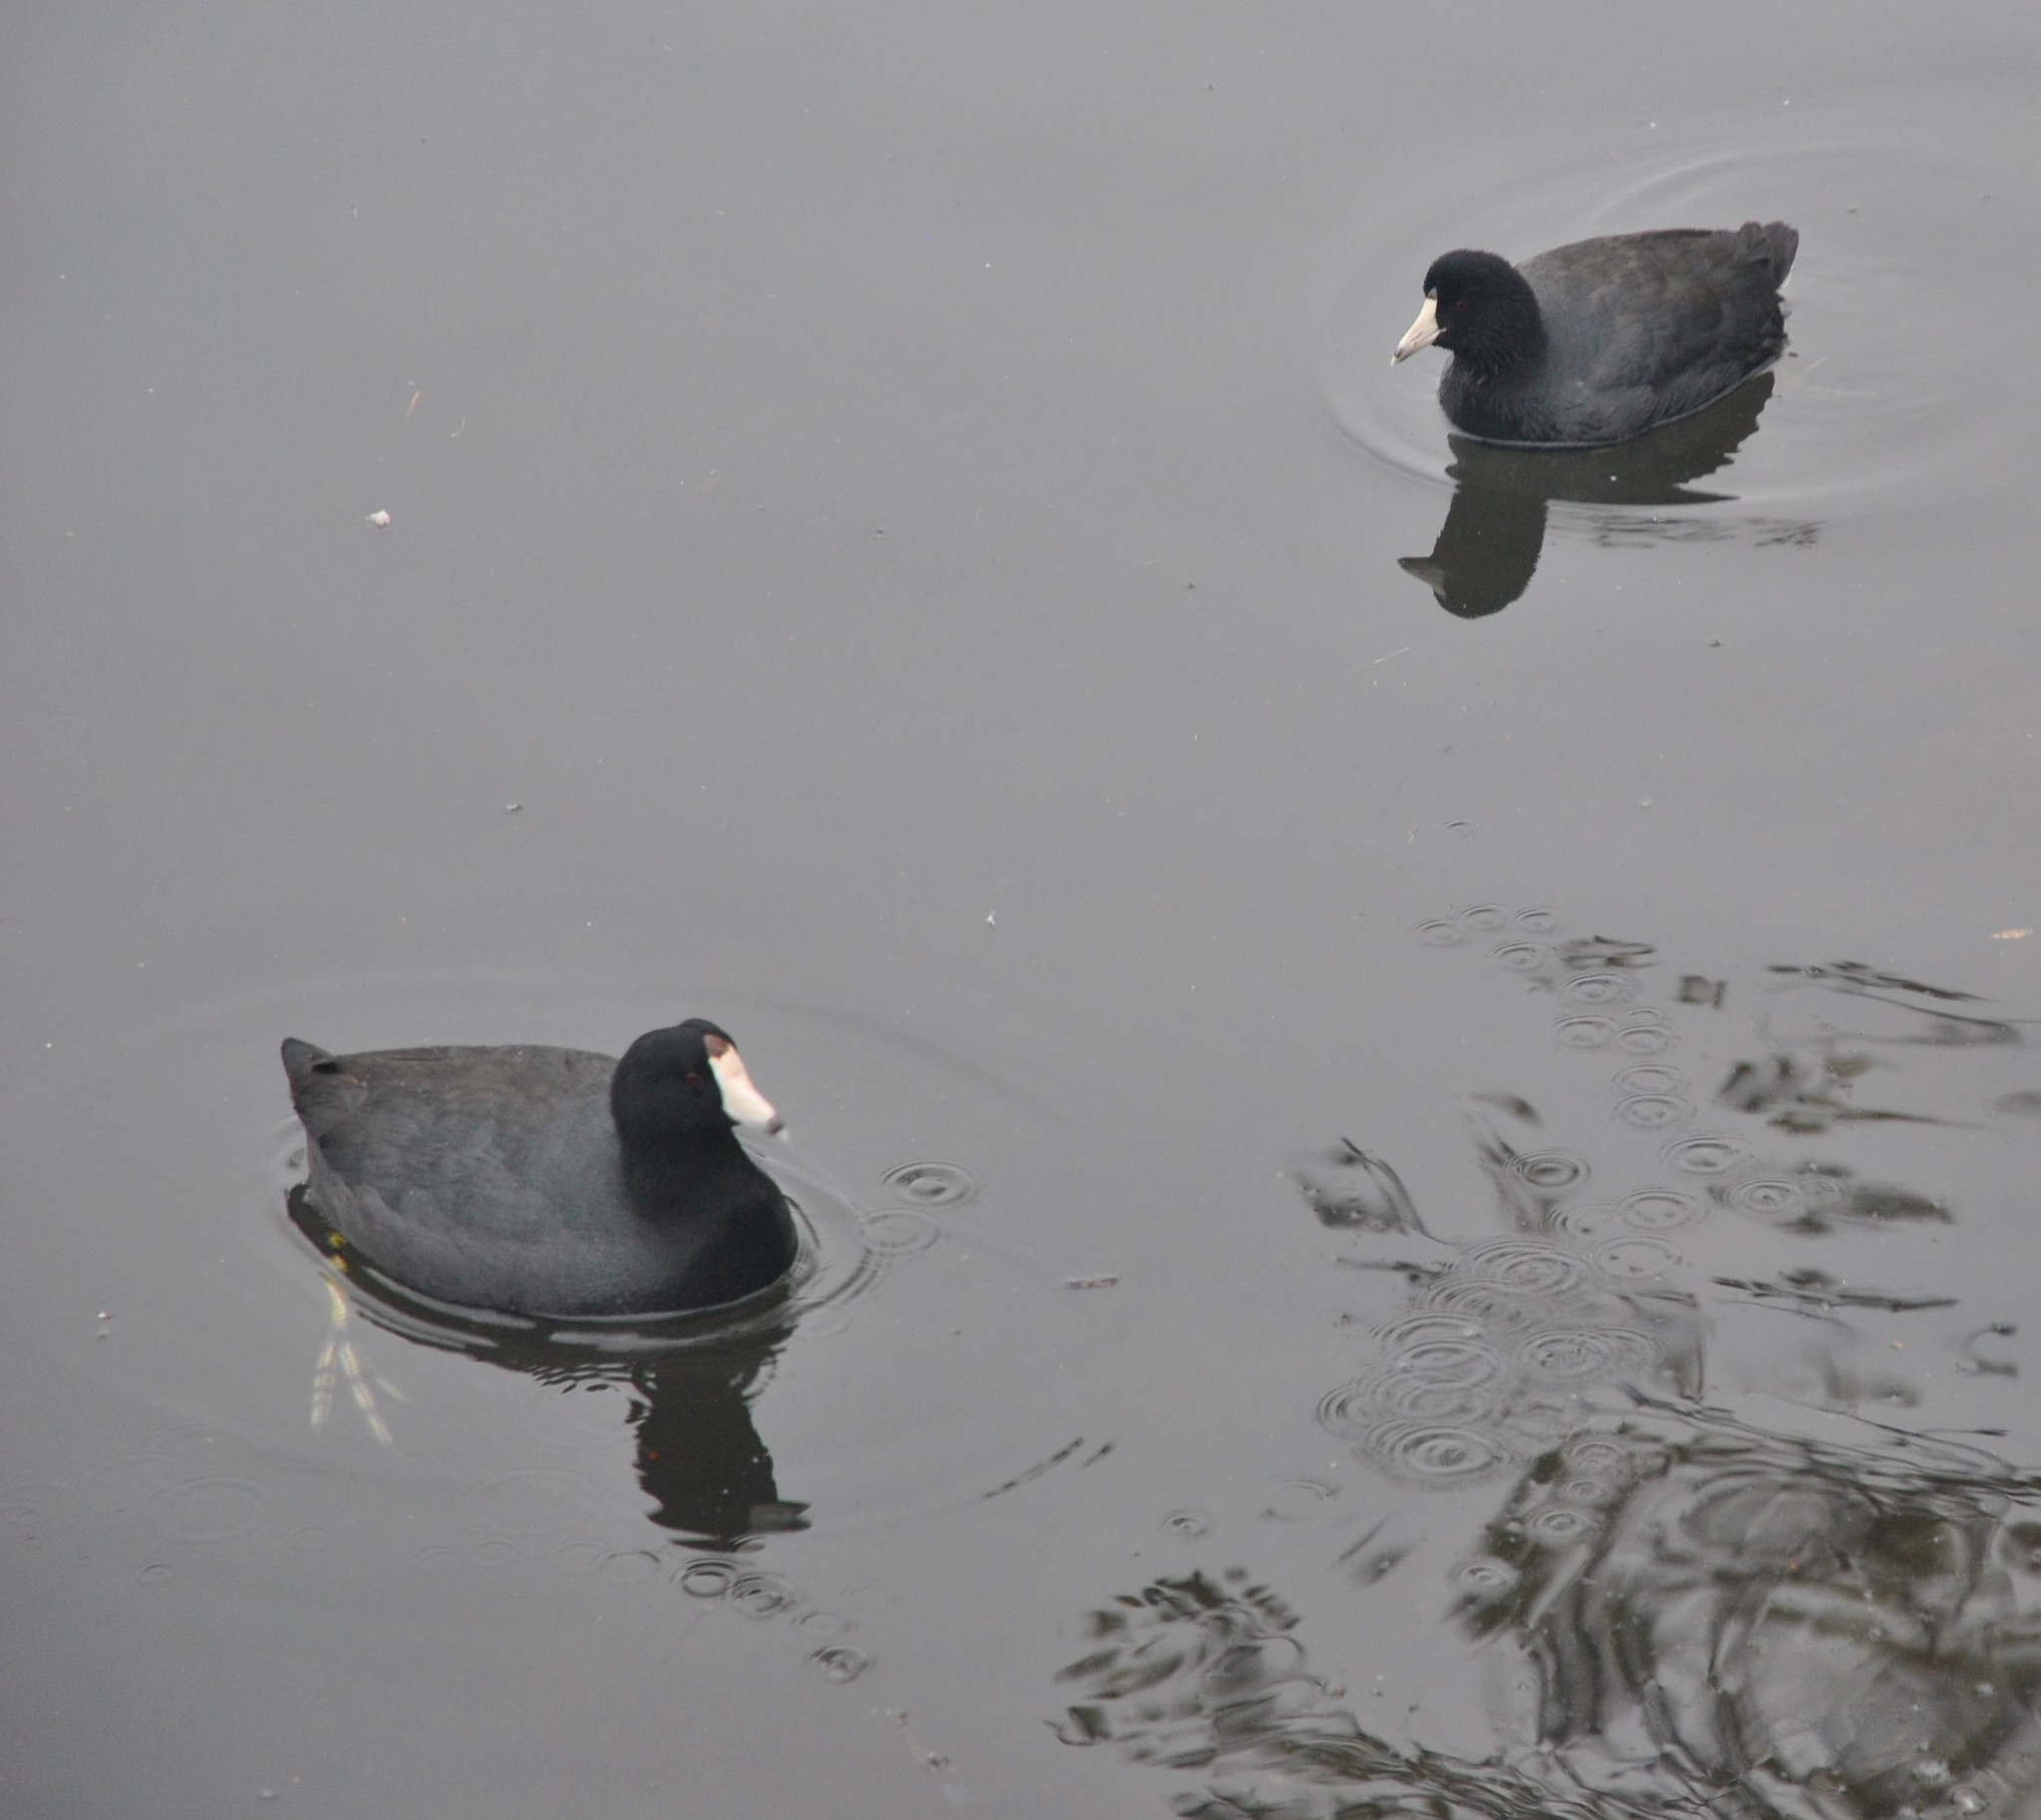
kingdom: Animalia
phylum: Chordata
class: Aves
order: Gruiformes
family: Rallidae
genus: Fulica
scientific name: Fulica americana
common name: American coot
